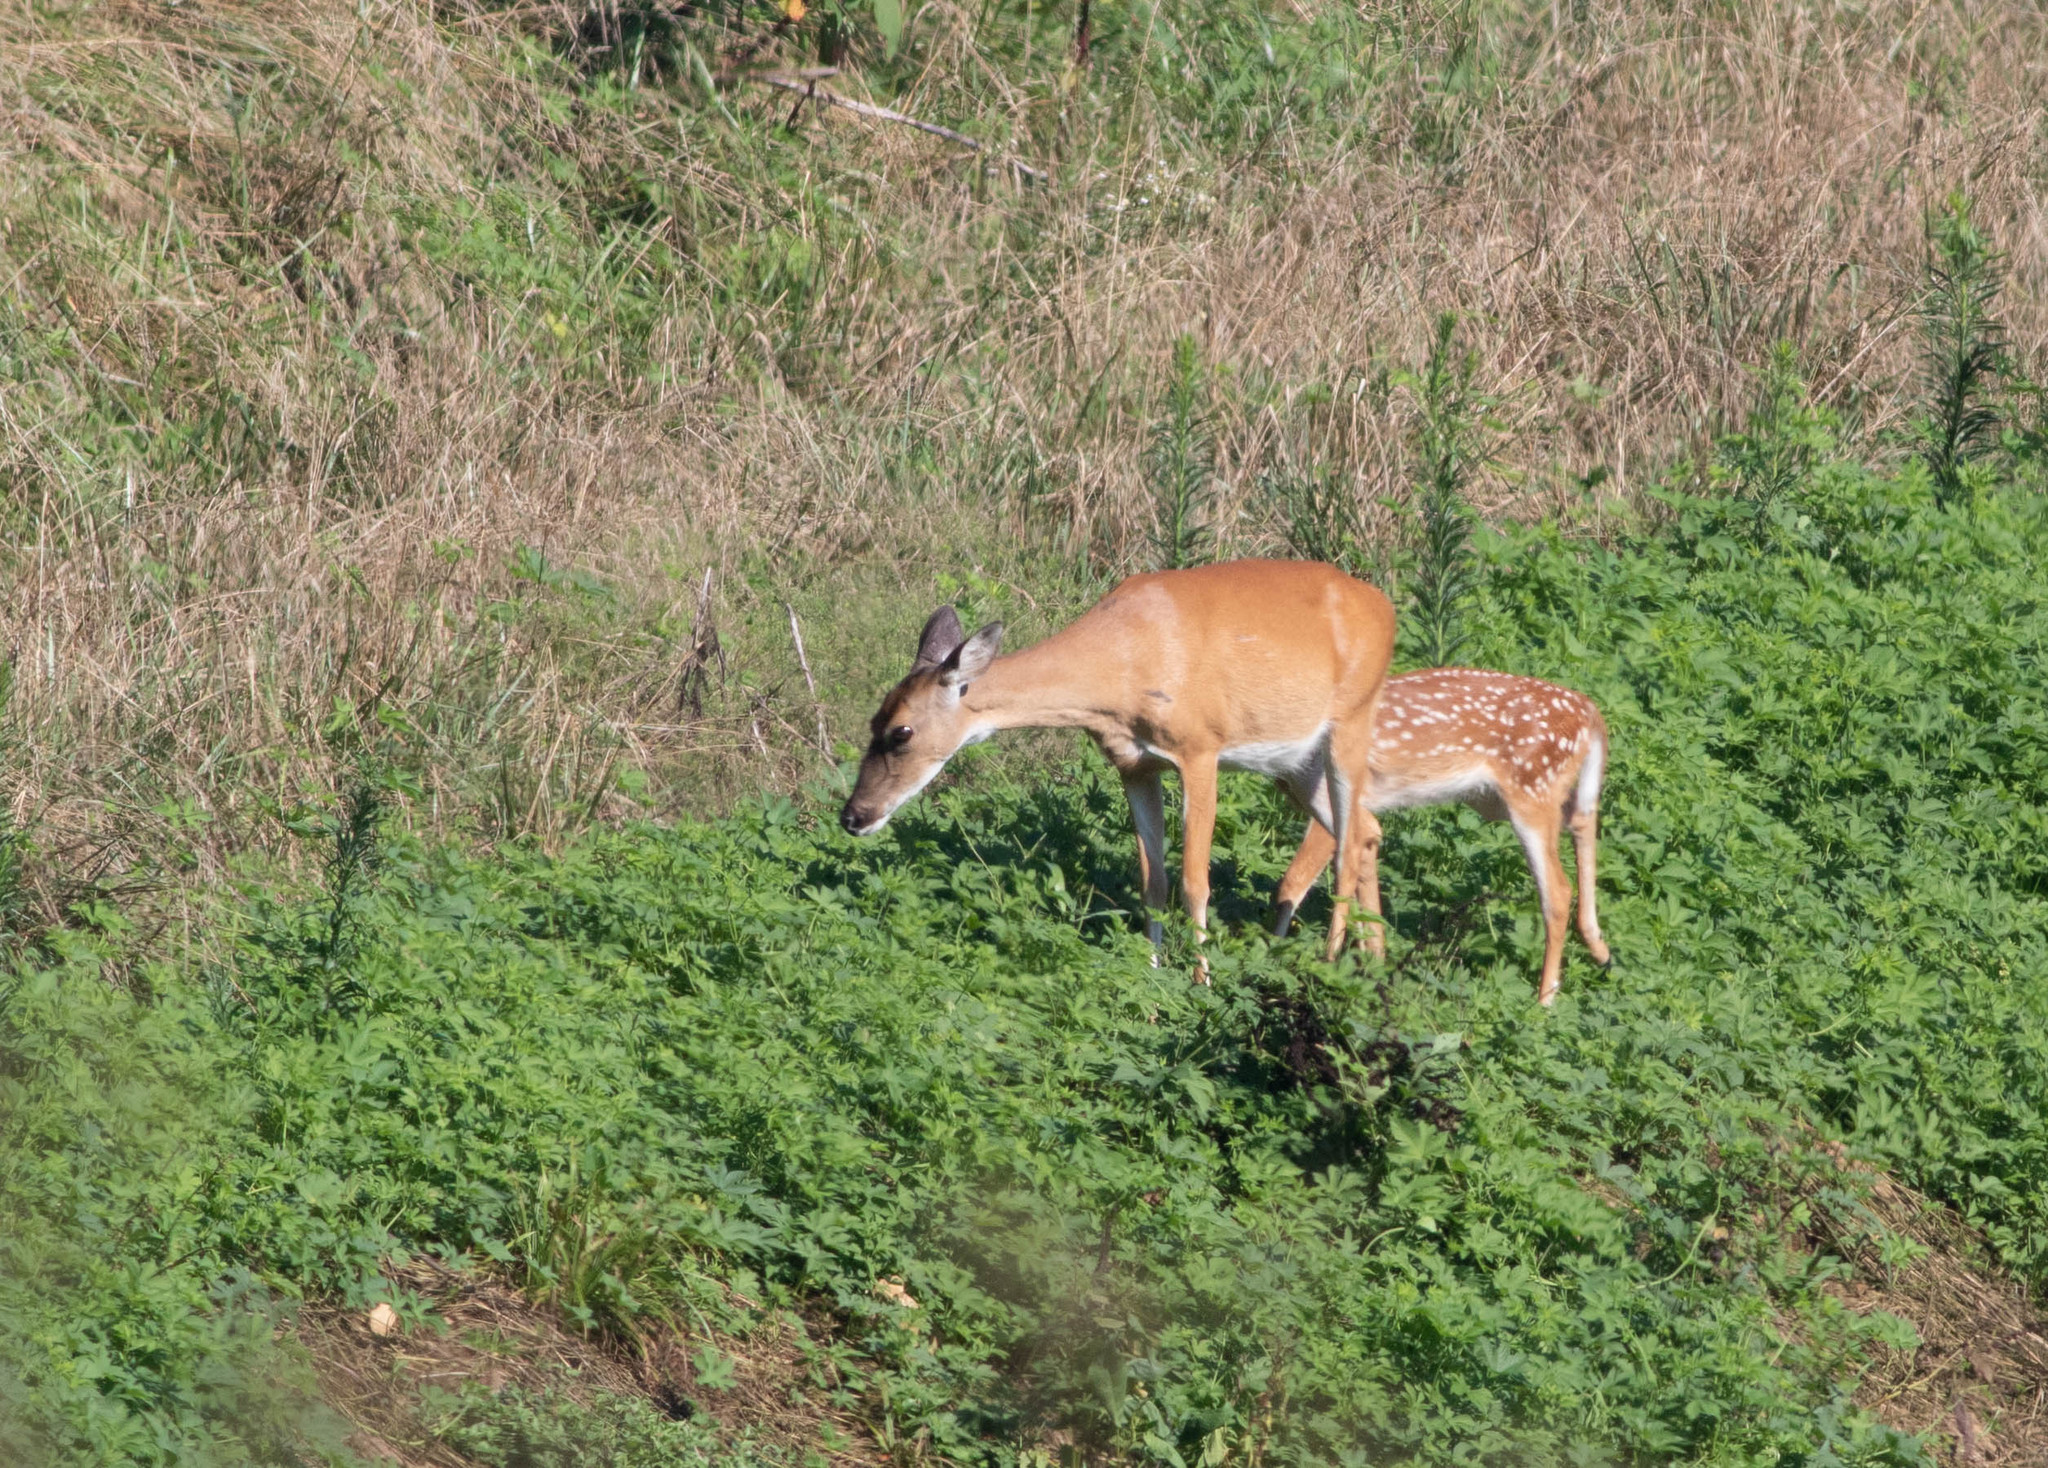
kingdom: Animalia
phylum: Chordata
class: Mammalia
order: Artiodactyla
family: Cervidae
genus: Odocoileus
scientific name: Odocoileus virginianus
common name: White-tailed deer
